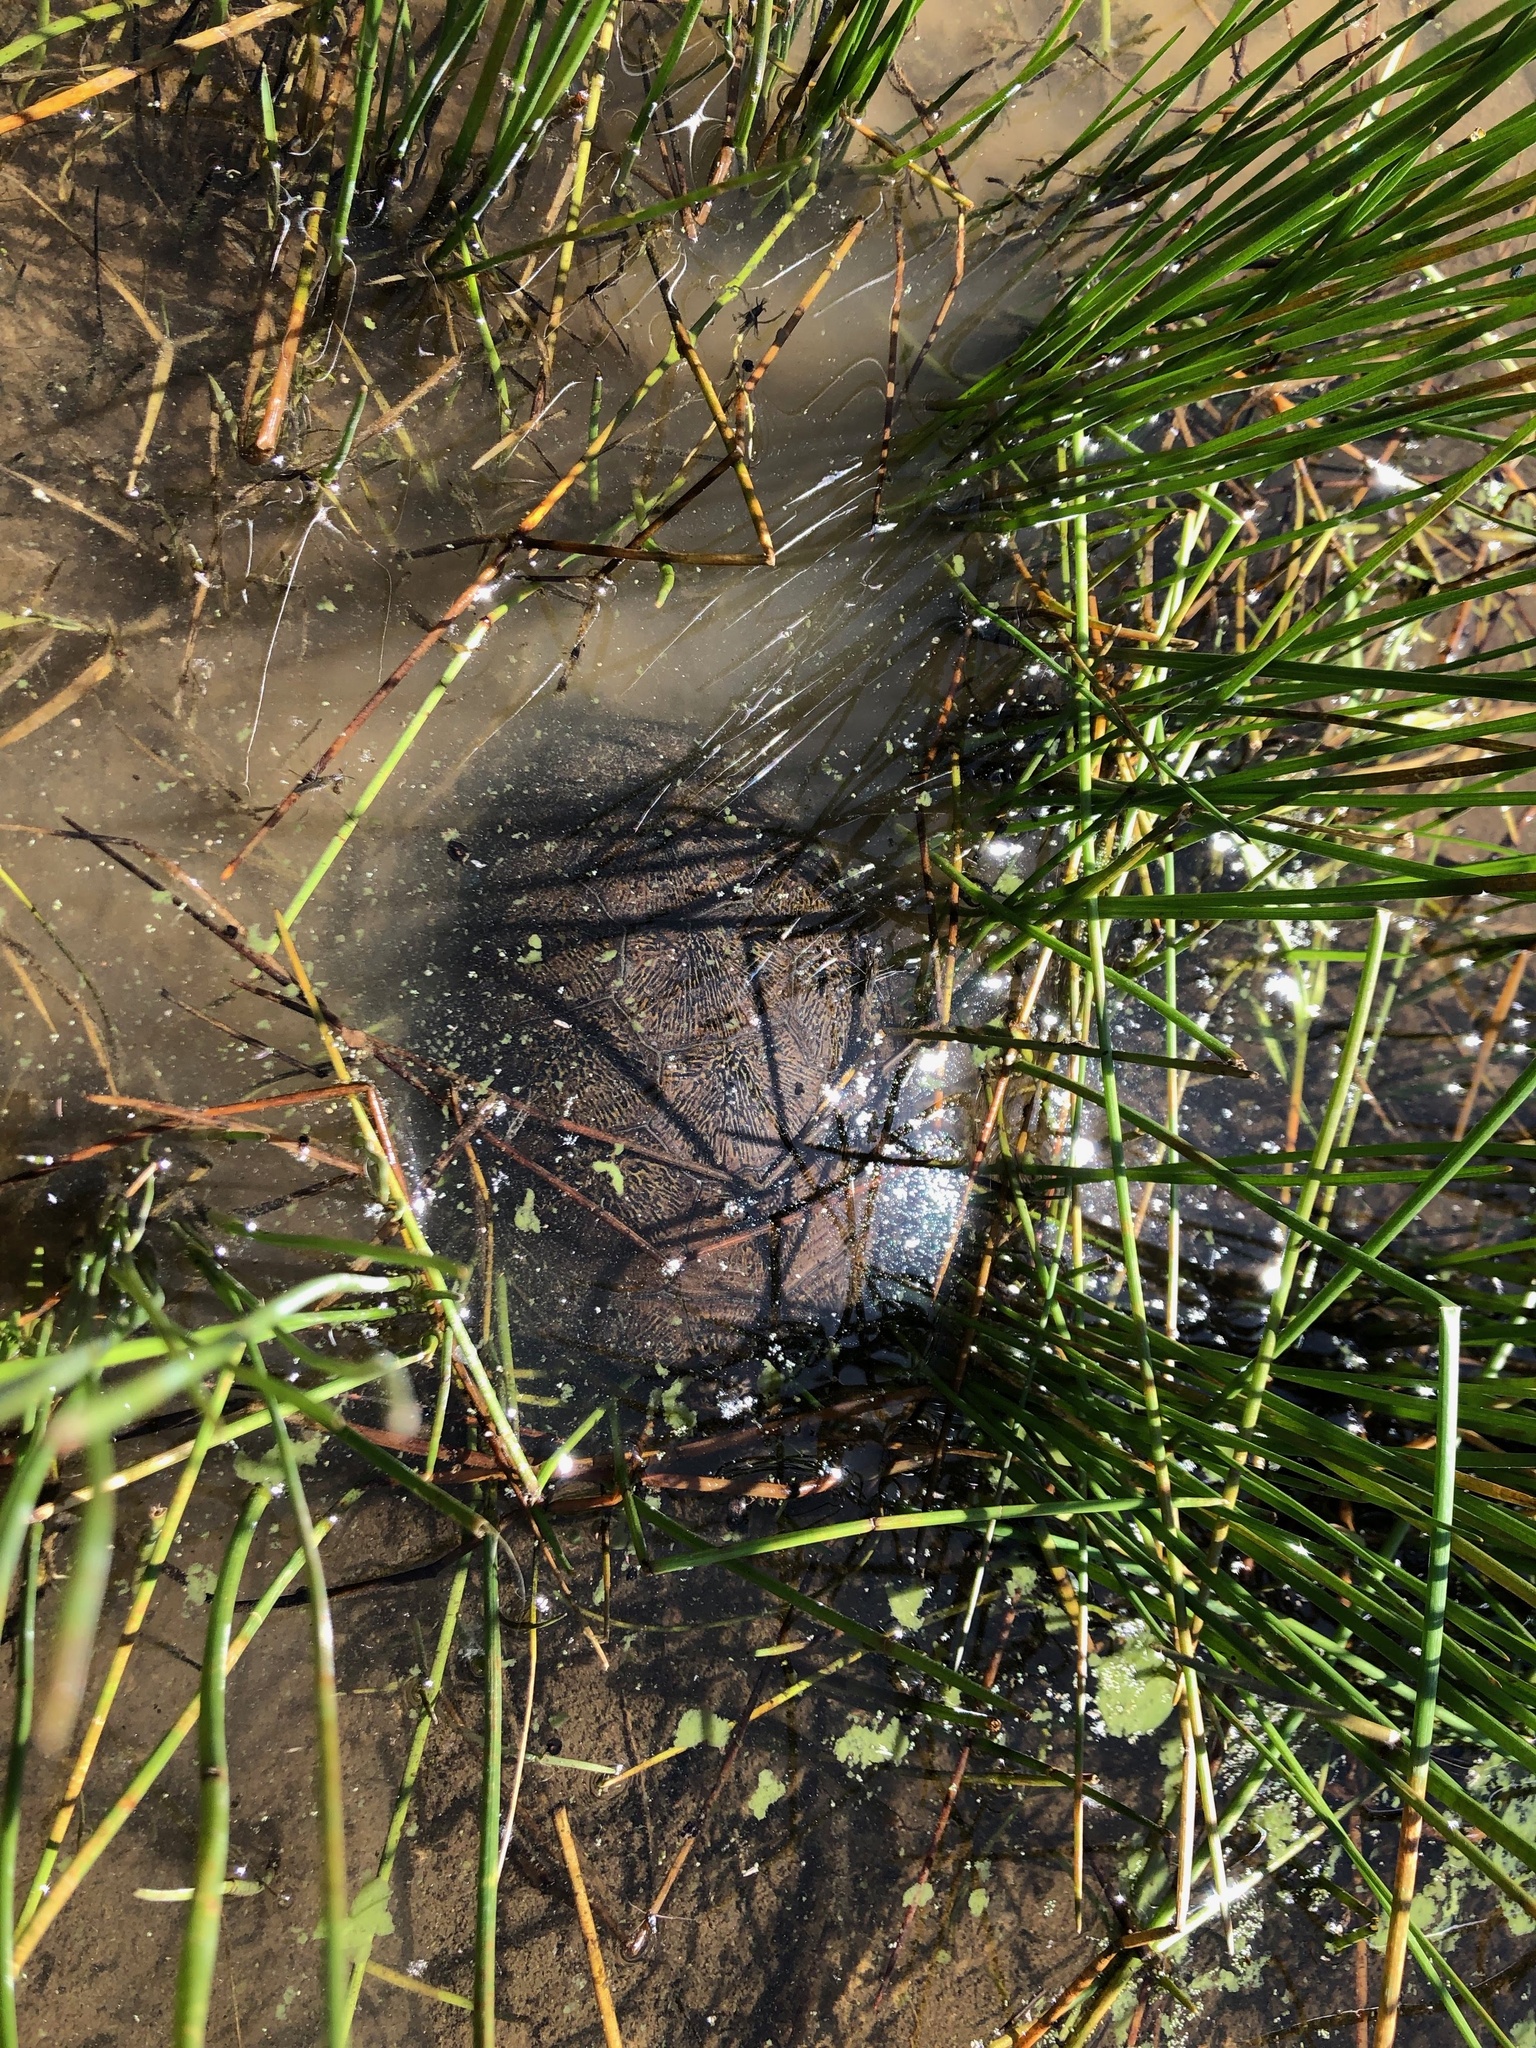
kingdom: Animalia
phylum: Chordata
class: Testudines
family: Emydidae
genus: Actinemys
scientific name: Actinemys marmorata
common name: Western pond turtle
